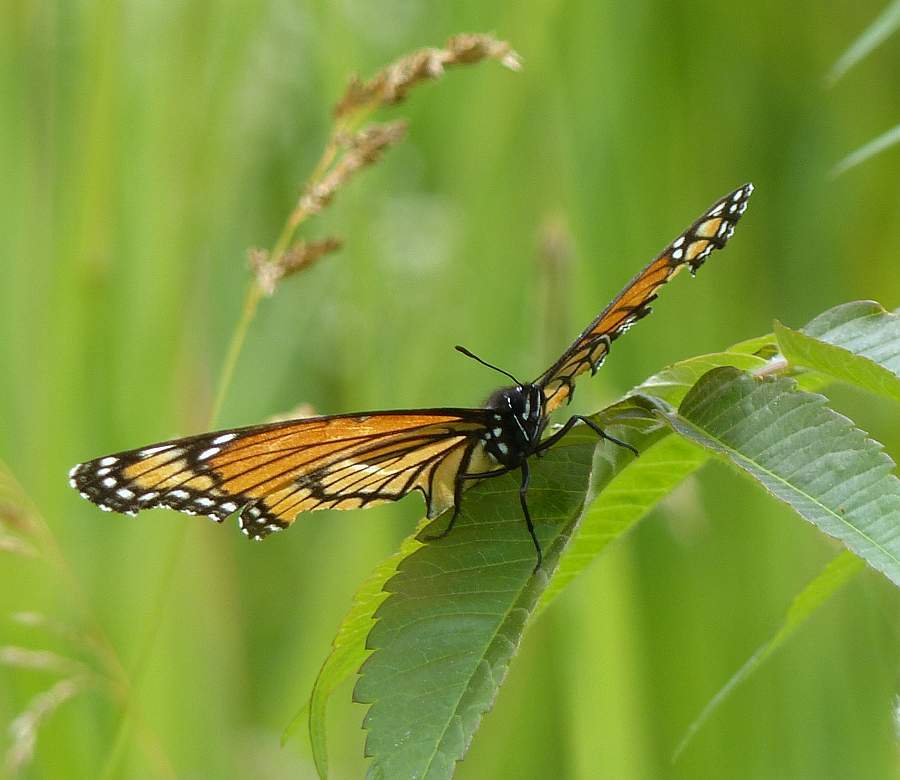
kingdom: Animalia
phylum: Arthropoda
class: Insecta
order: Lepidoptera
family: Nymphalidae
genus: Limenitis
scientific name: Limenitis archippus
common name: Viceroy
